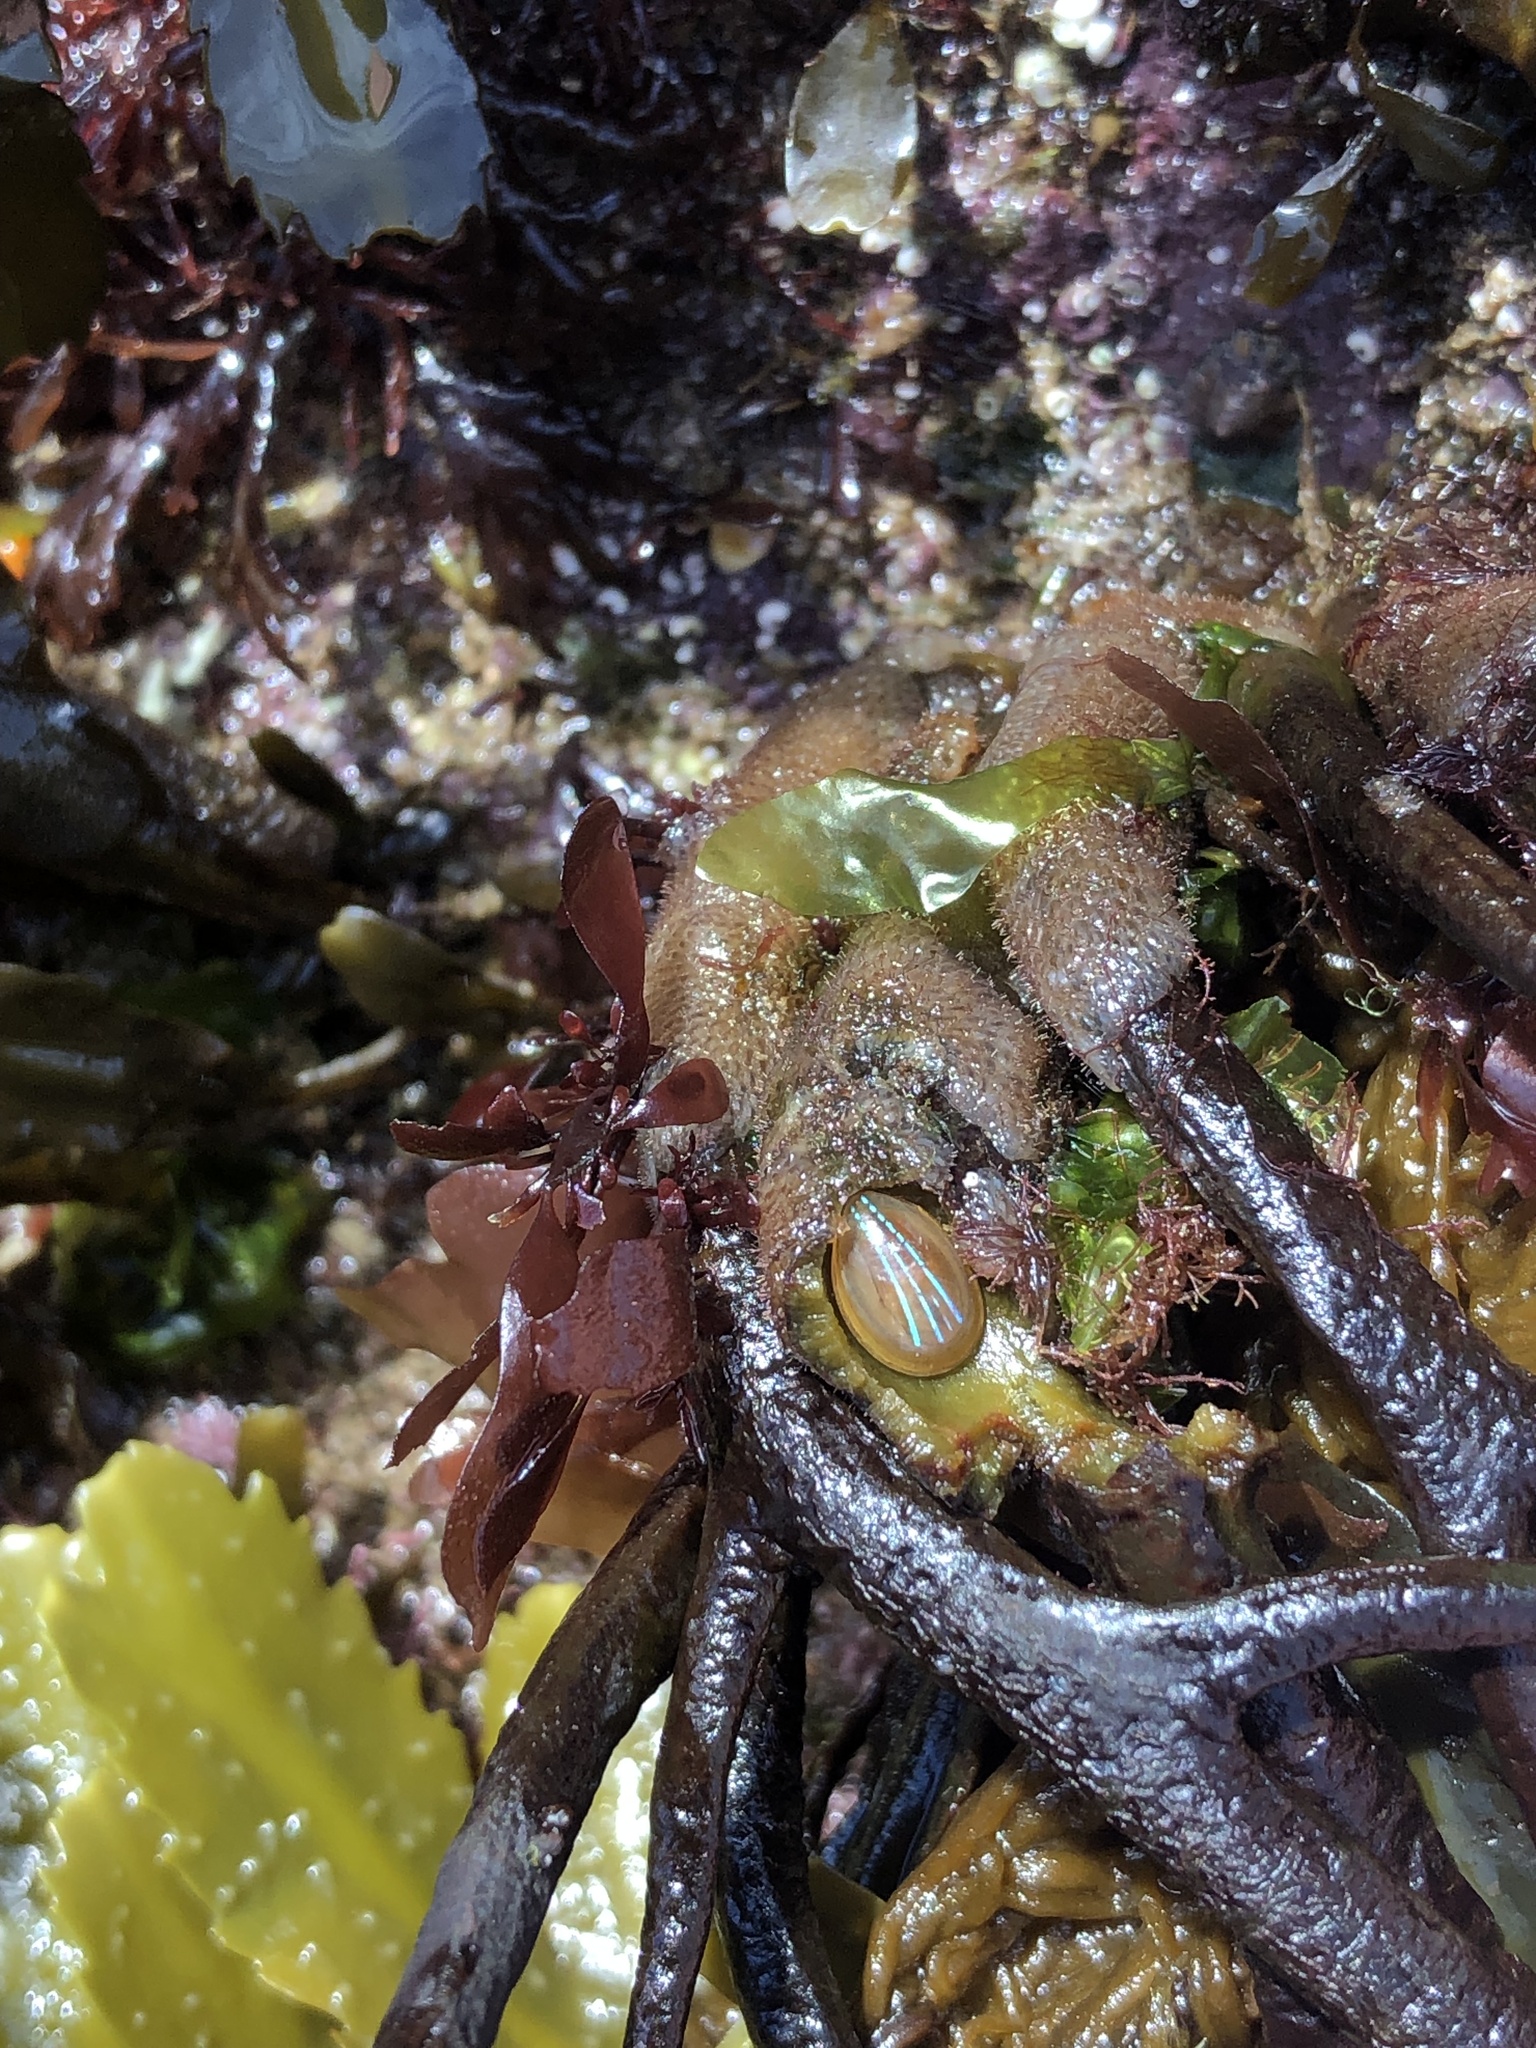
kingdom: Animalia
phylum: Mollusca
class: Gastropoda
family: Patellidae
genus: Patella
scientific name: Patella pellucida
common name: Blue-rayed limpet
